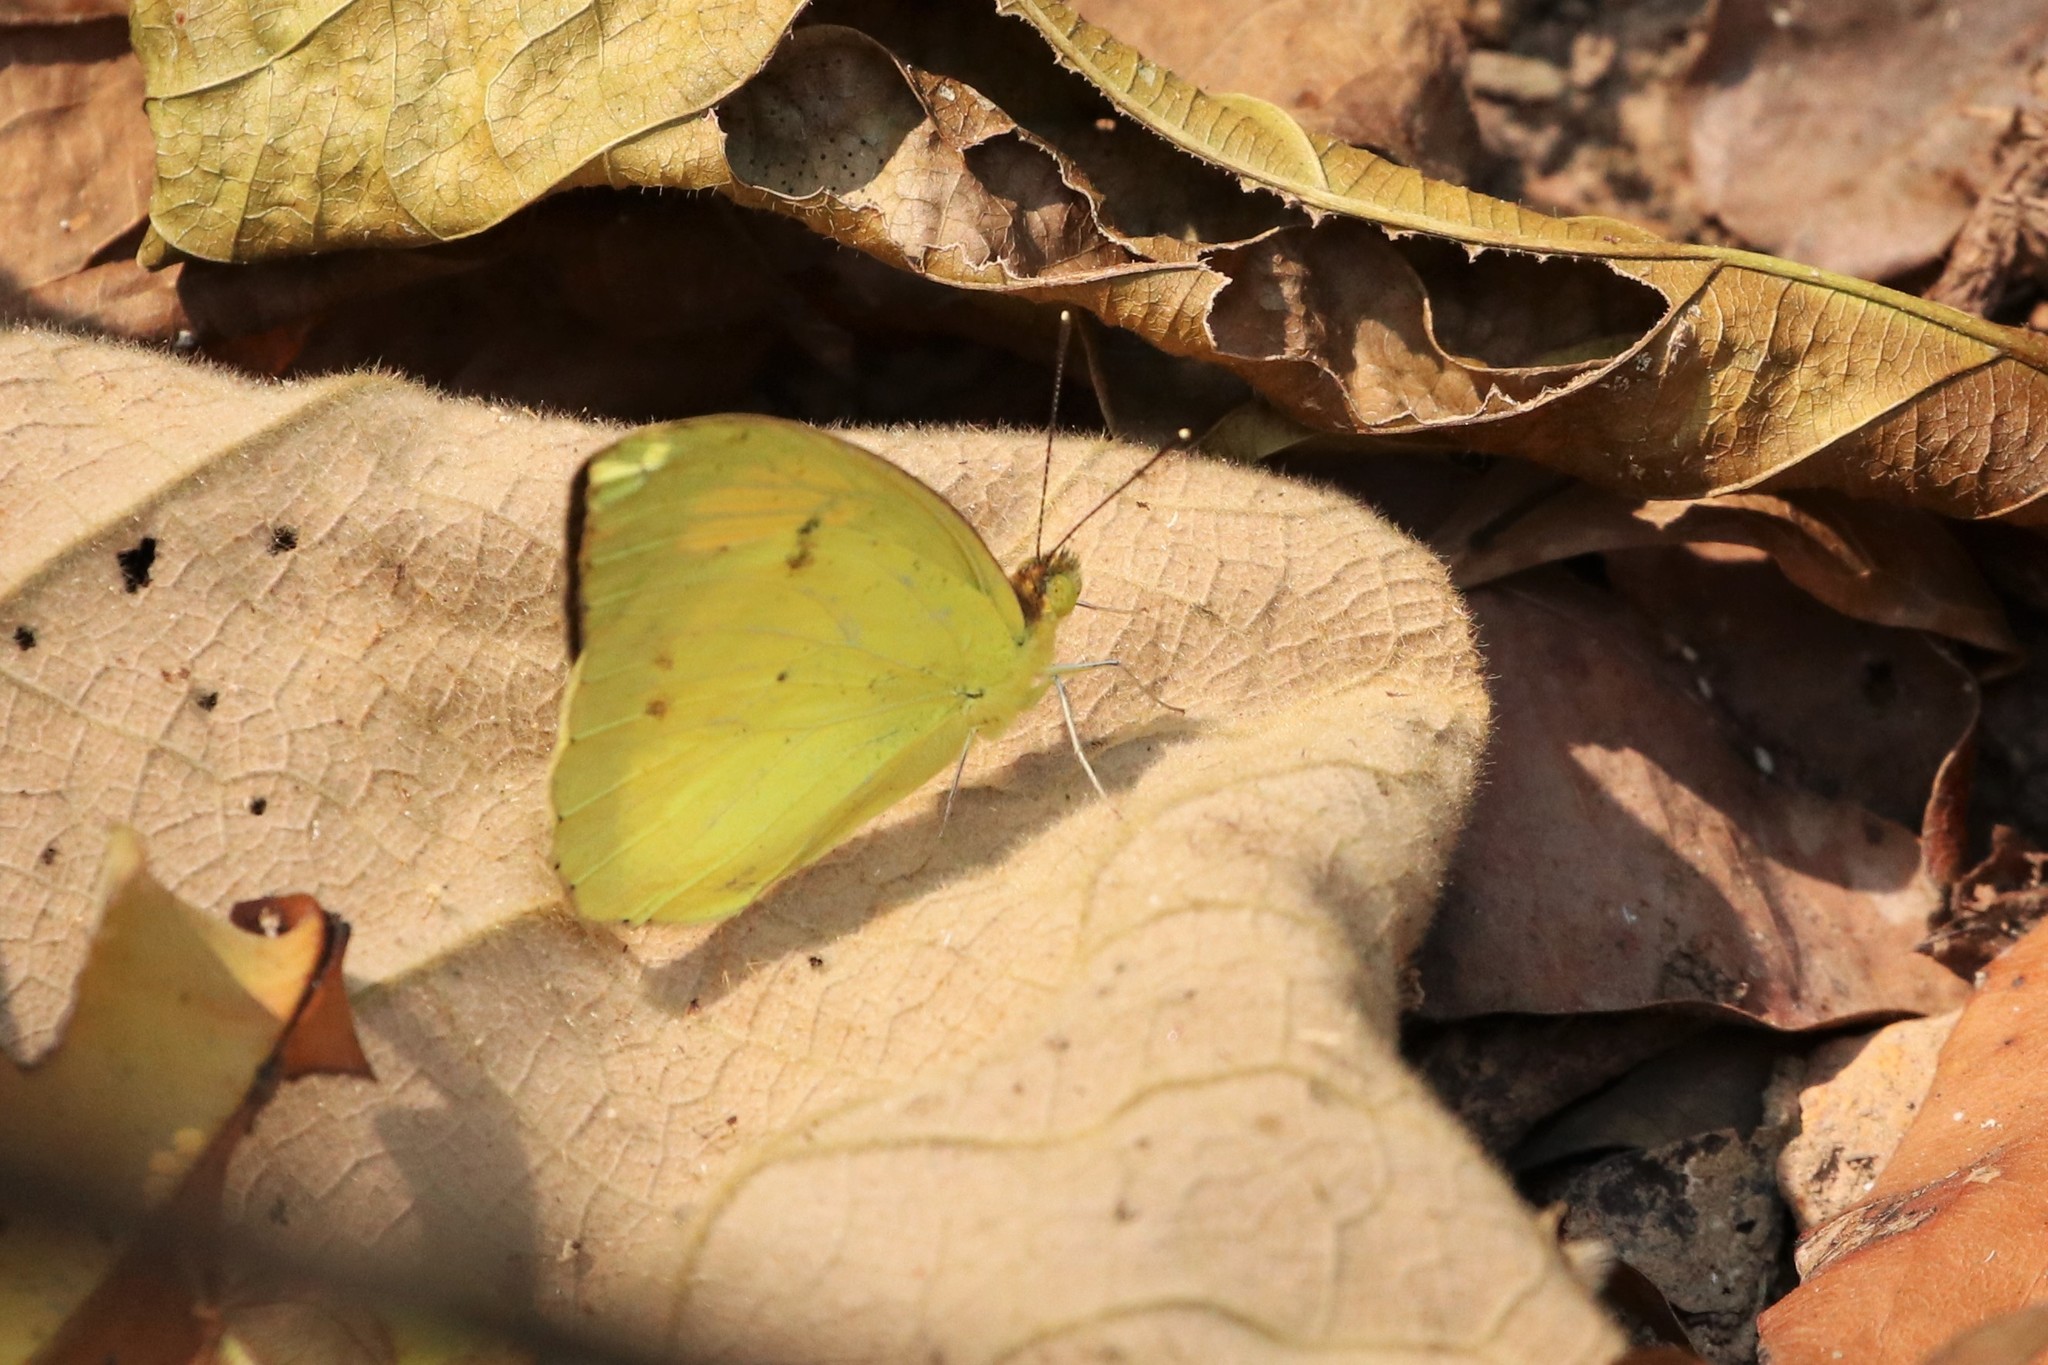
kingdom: Animalia
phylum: Arthropoda
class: Insecta
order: Lepidoptera
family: Pieridae
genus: Ixias
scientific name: Ixias pyrene
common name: Yellow orange tip
